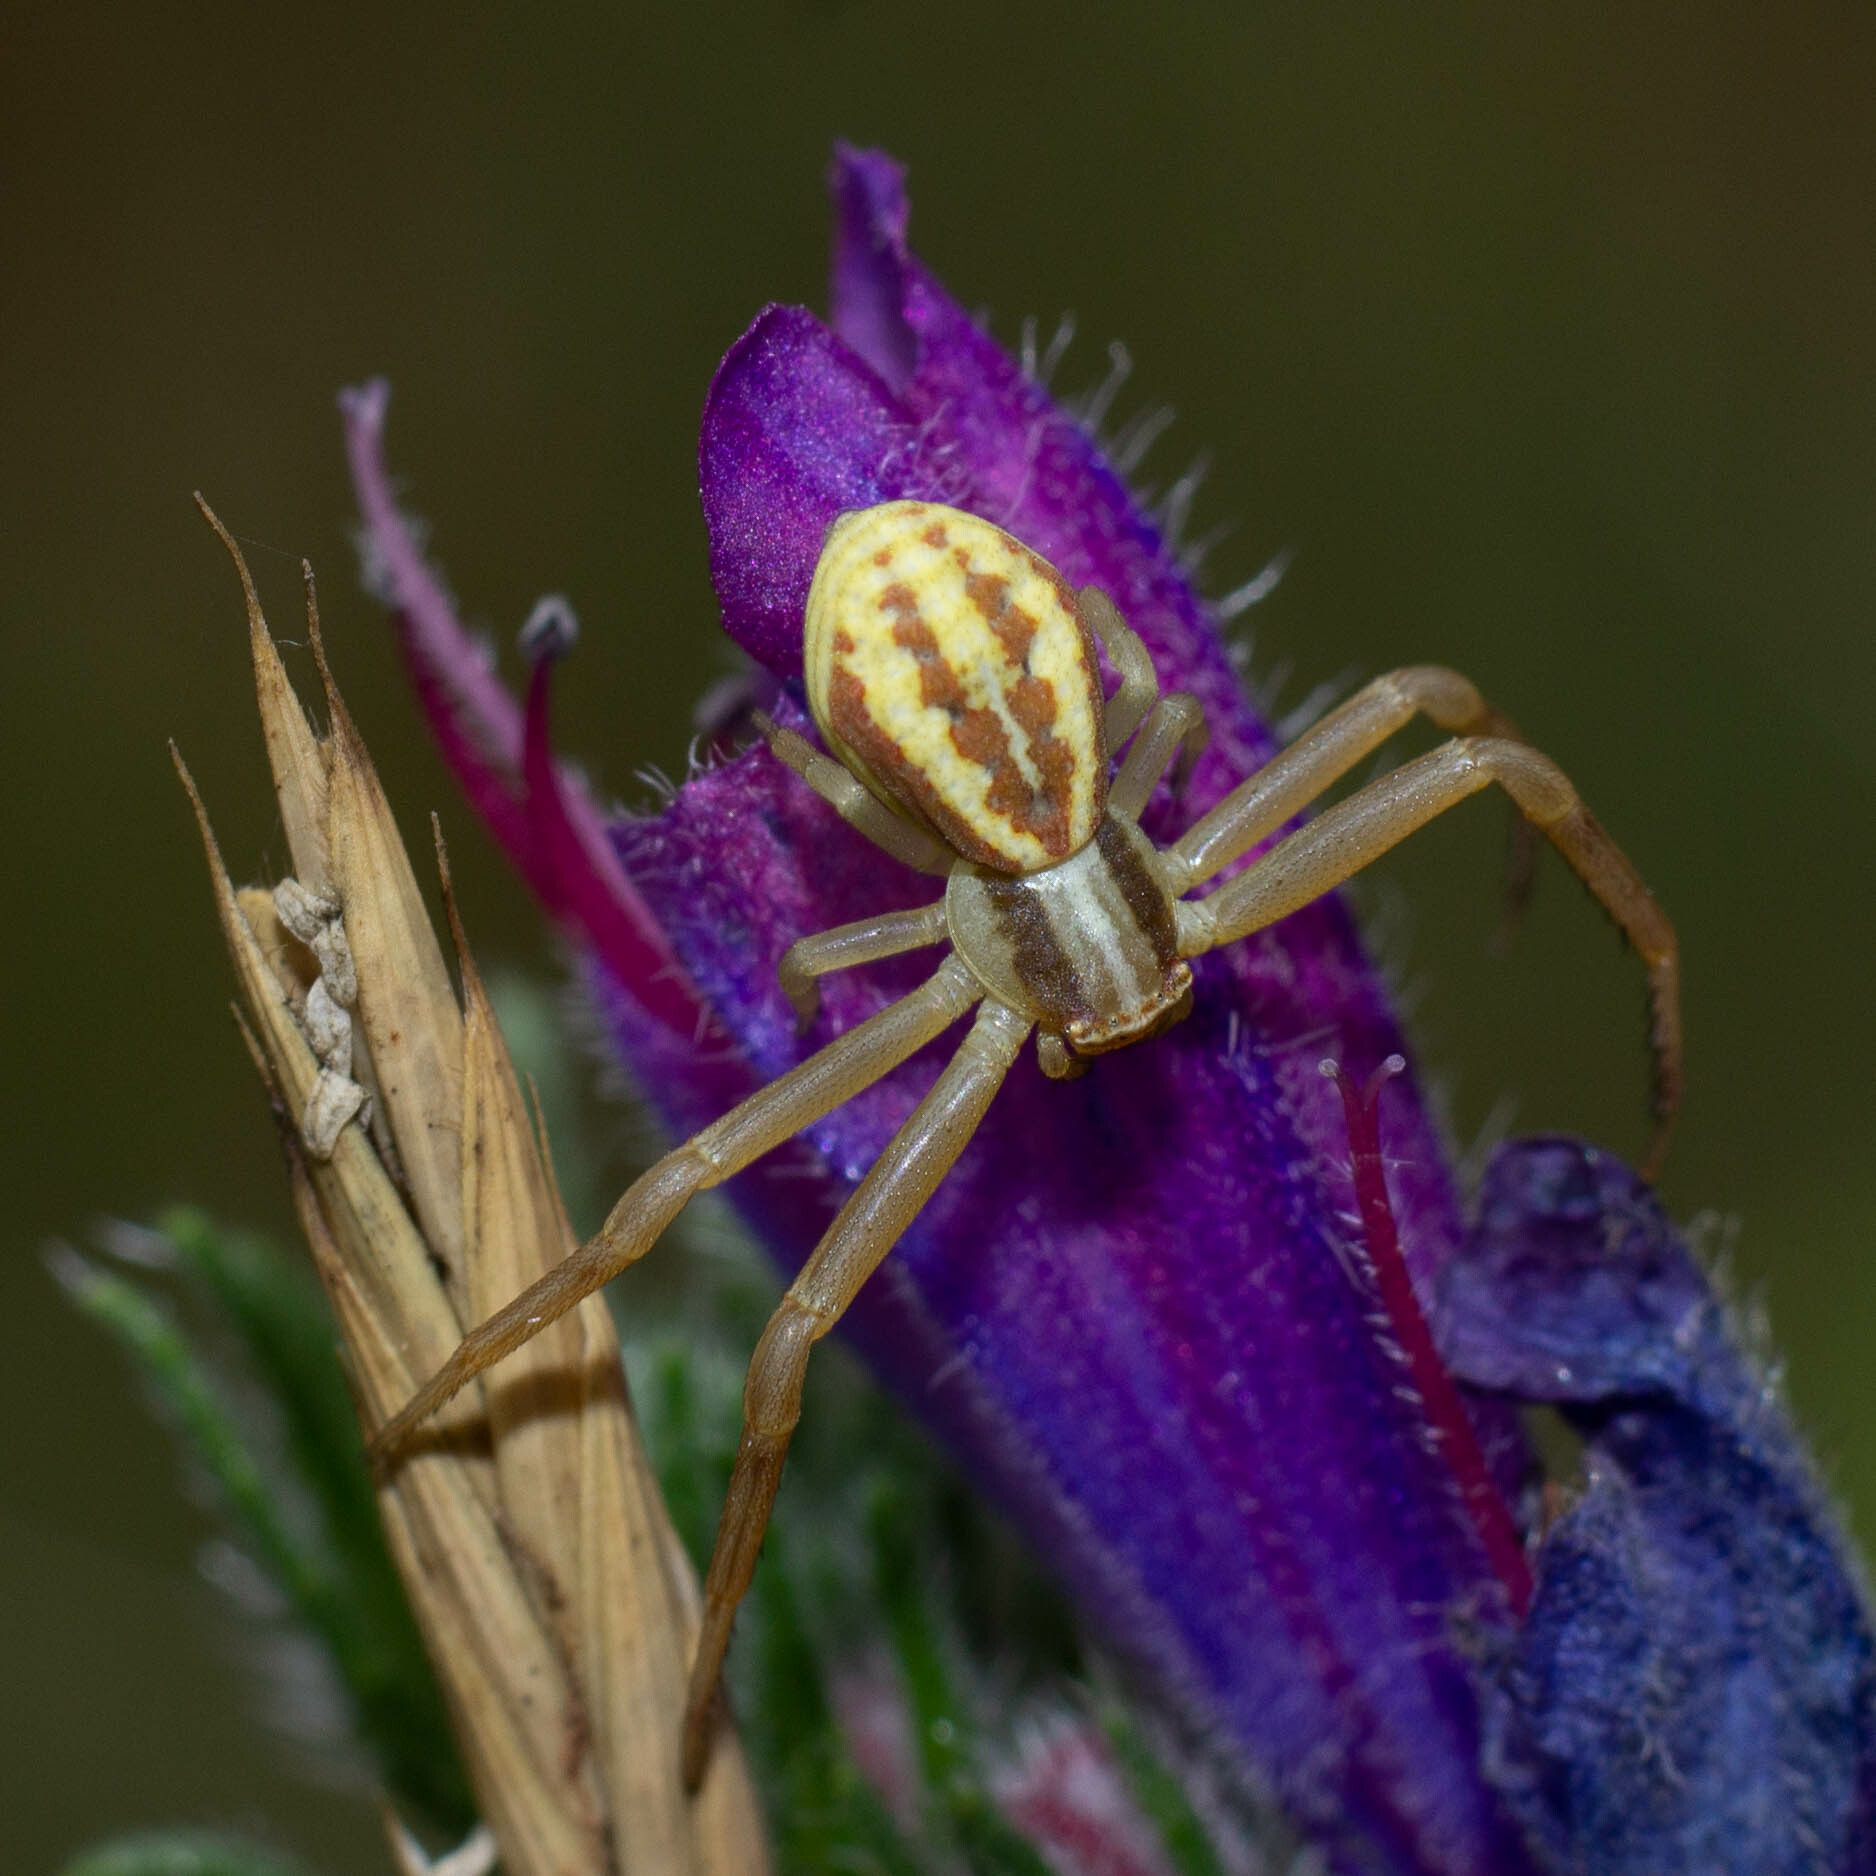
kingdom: Animalia
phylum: Arthropoda
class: Arachnida
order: Araneae
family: Thomisidae
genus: Runcinia
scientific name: Runcinia grammica
